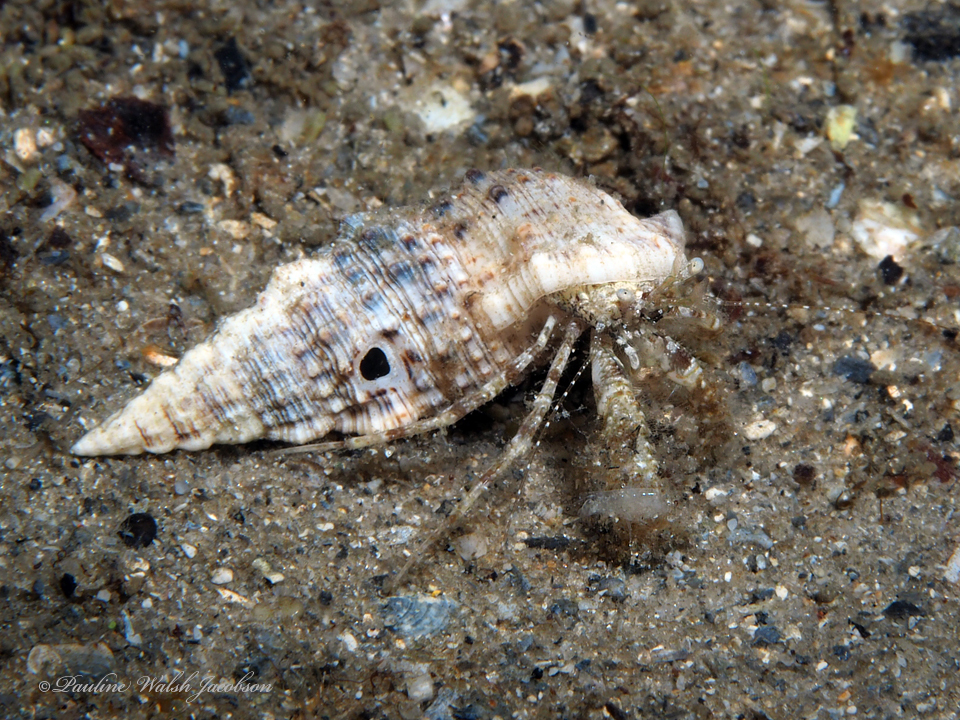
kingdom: Animalia
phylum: Arthropoda
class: Malacostraca
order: Decapoda
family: Paguridae
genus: Pagurus
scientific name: Pagurus maclaughlinae
